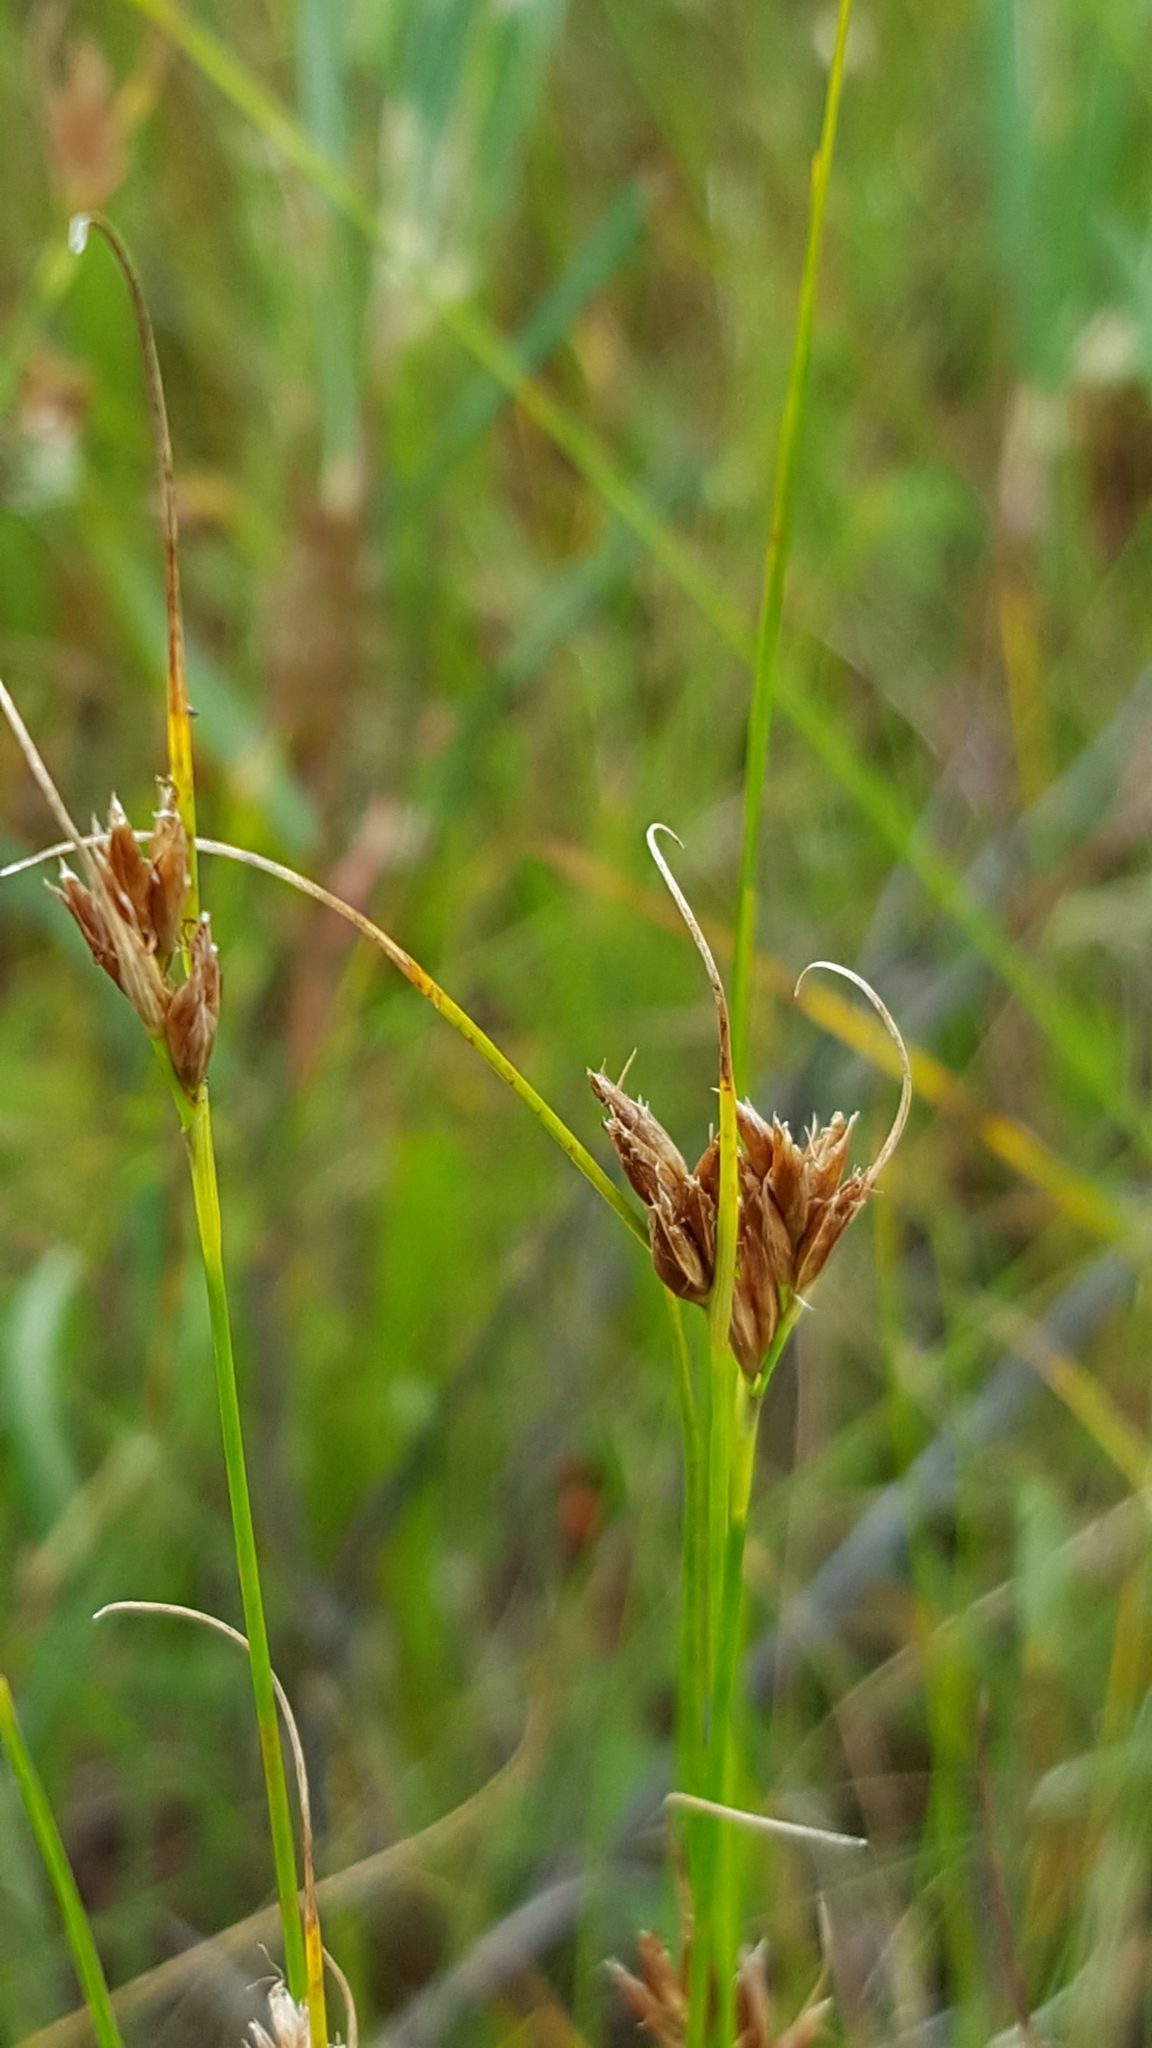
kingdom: Plantae
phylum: Tracheophyta
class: Liliopsida
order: Poales
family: Cyperaceae
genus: Rhynchospora
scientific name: Rhynchospora fusca
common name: Brown beak-sedge
